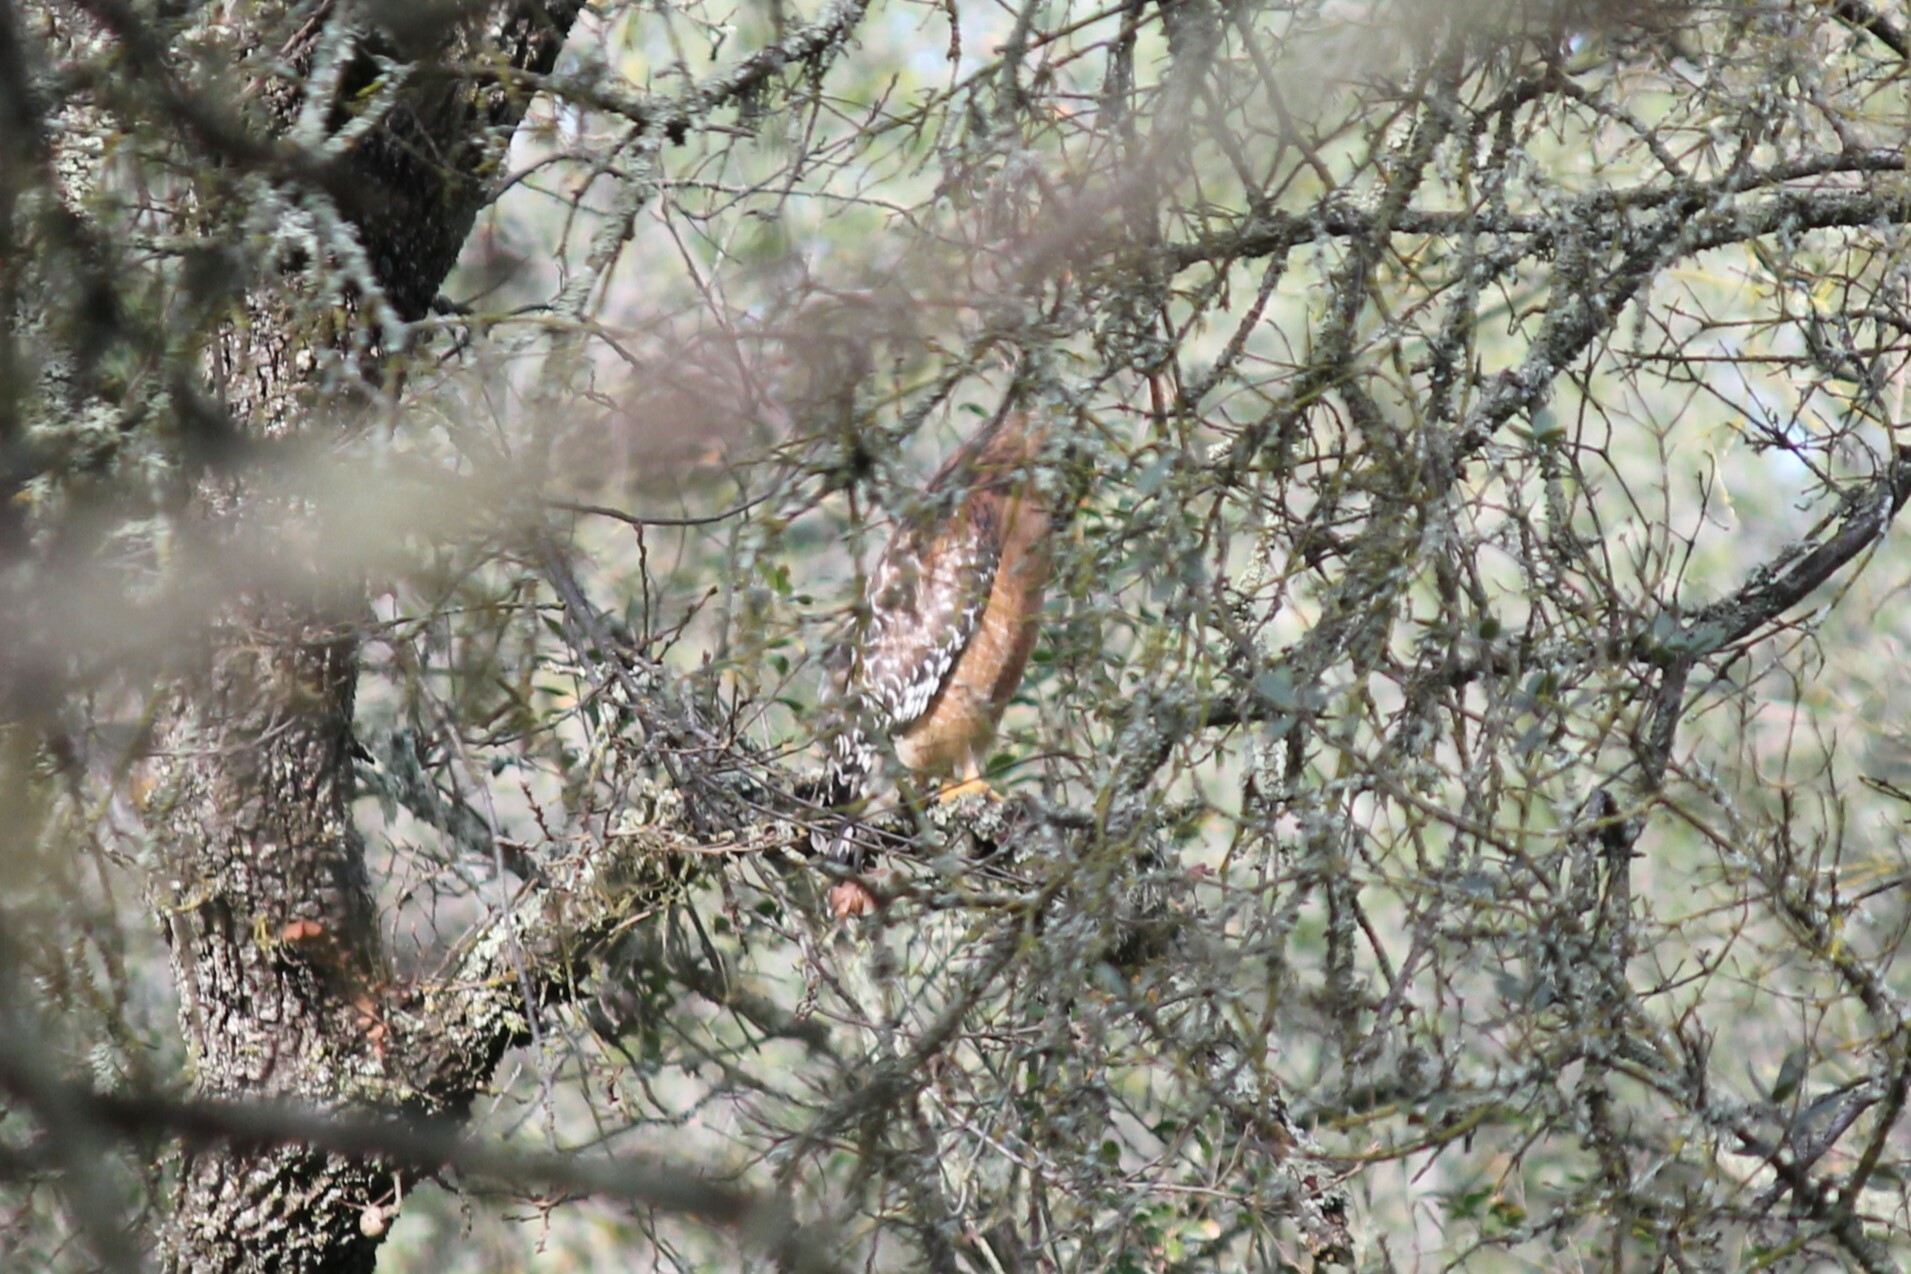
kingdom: Animalia
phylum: Chordata
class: Aves
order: Accipitriformes
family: Accipitridae
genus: Buteo
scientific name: Buteo lineatus
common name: Red-shouldered hawk
